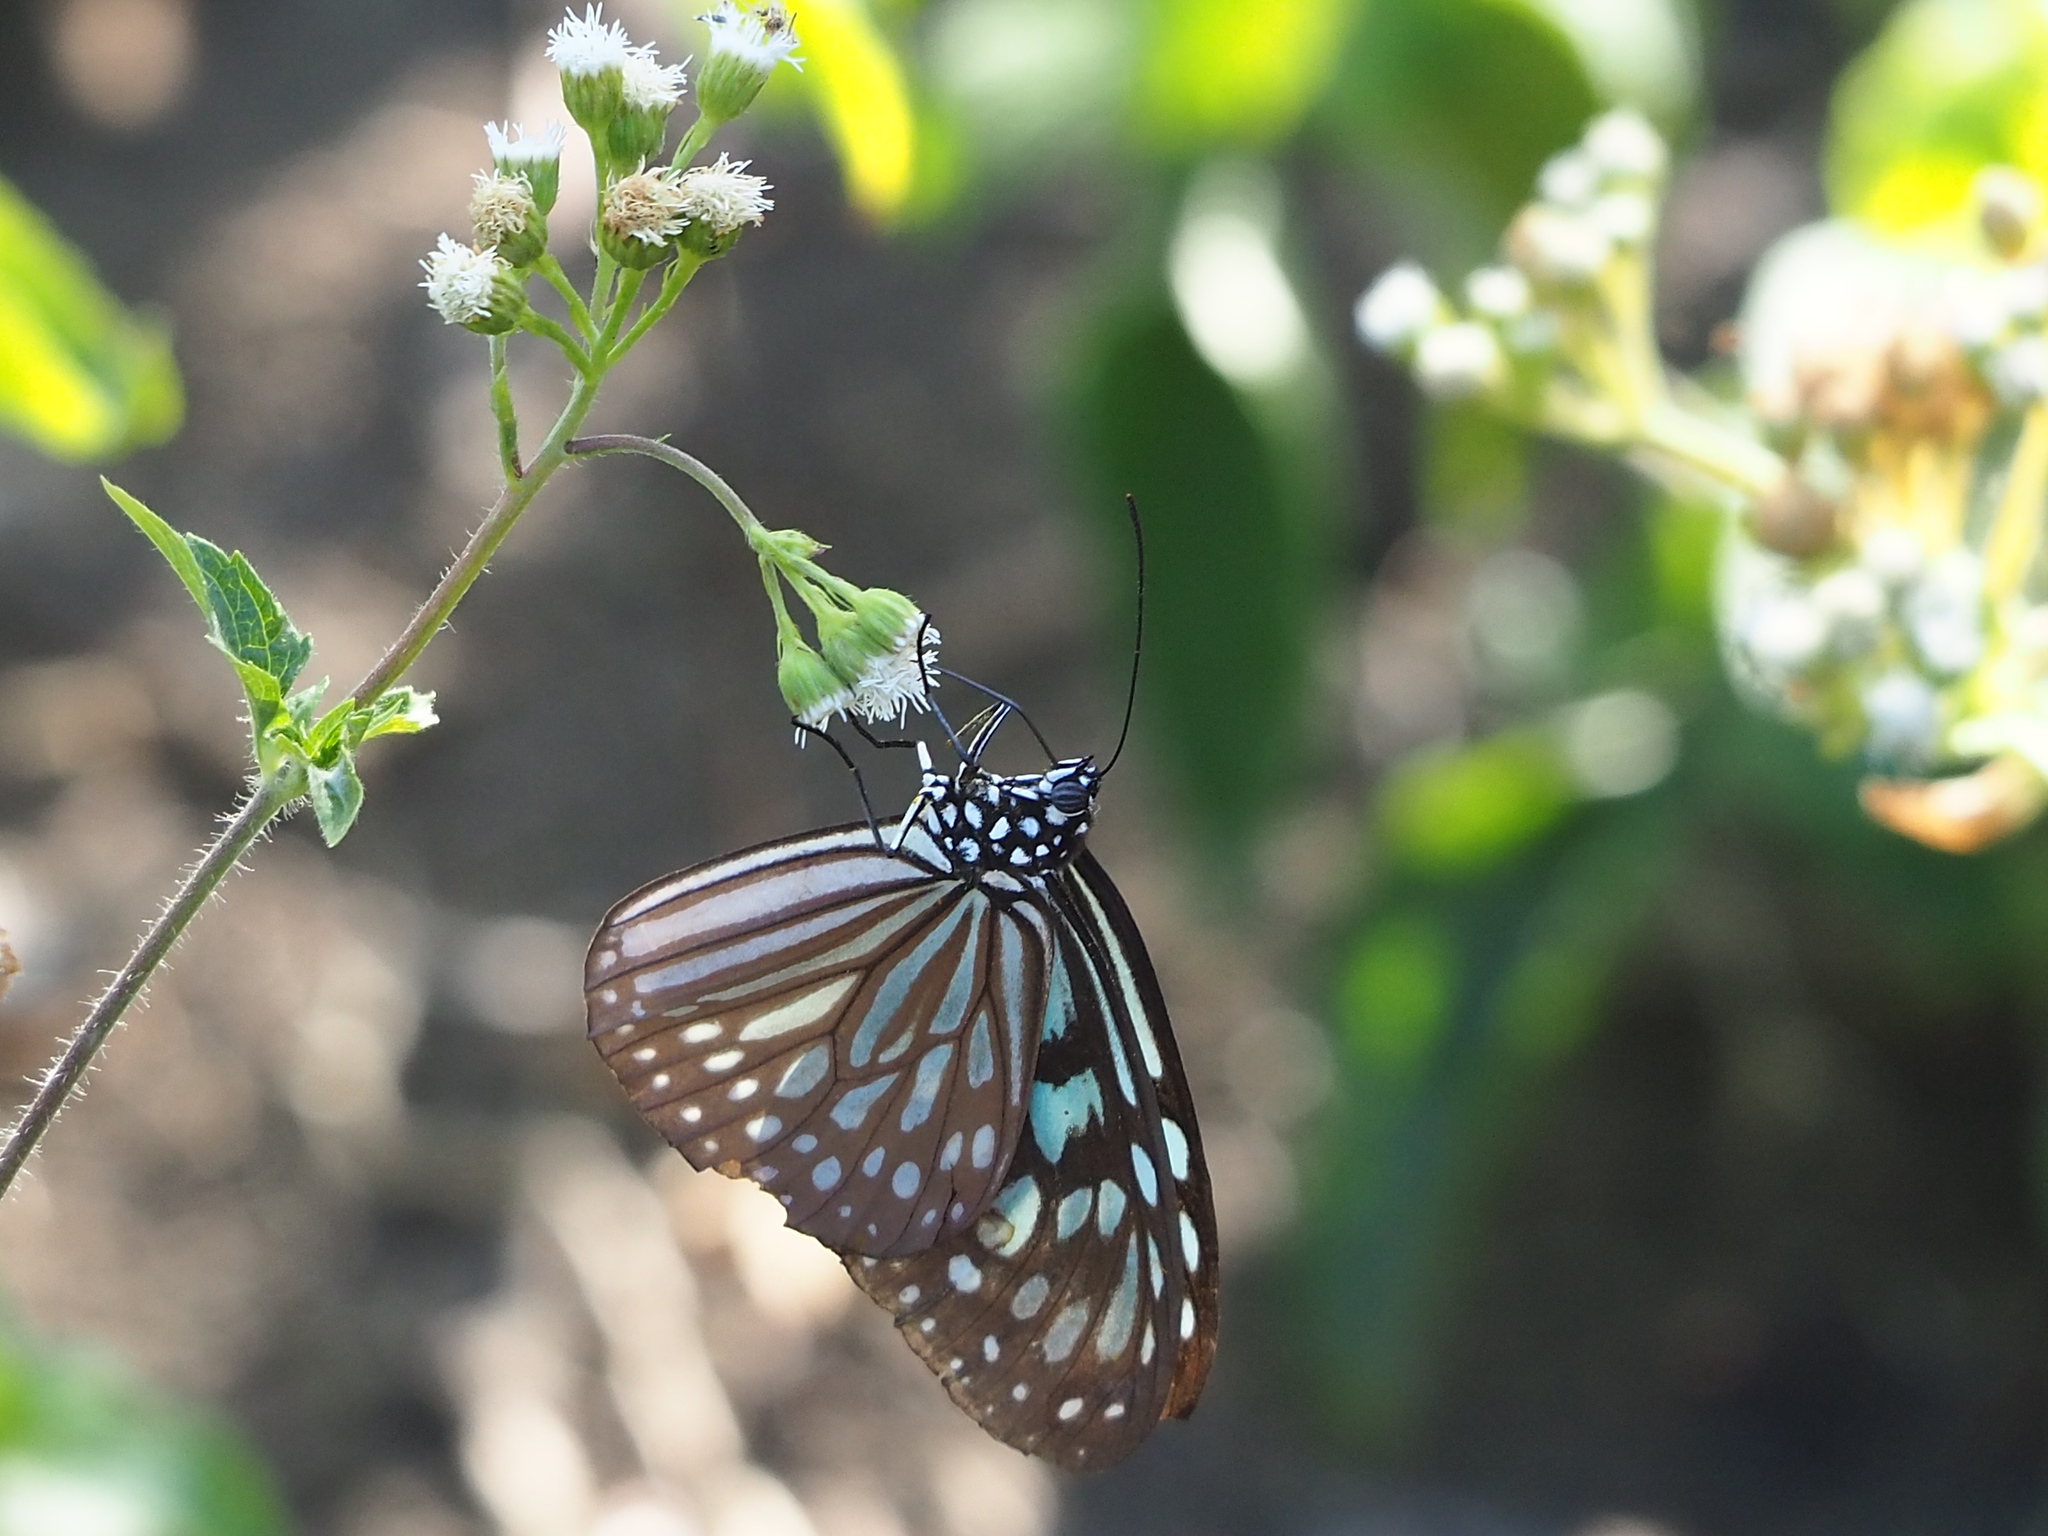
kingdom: Animalia
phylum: Arthropoda
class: Insecta
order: Lepidoptera
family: Nymphalidae
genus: Ideopsis
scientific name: Ideopsis similis
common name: Ceylon blue glassy tiger
